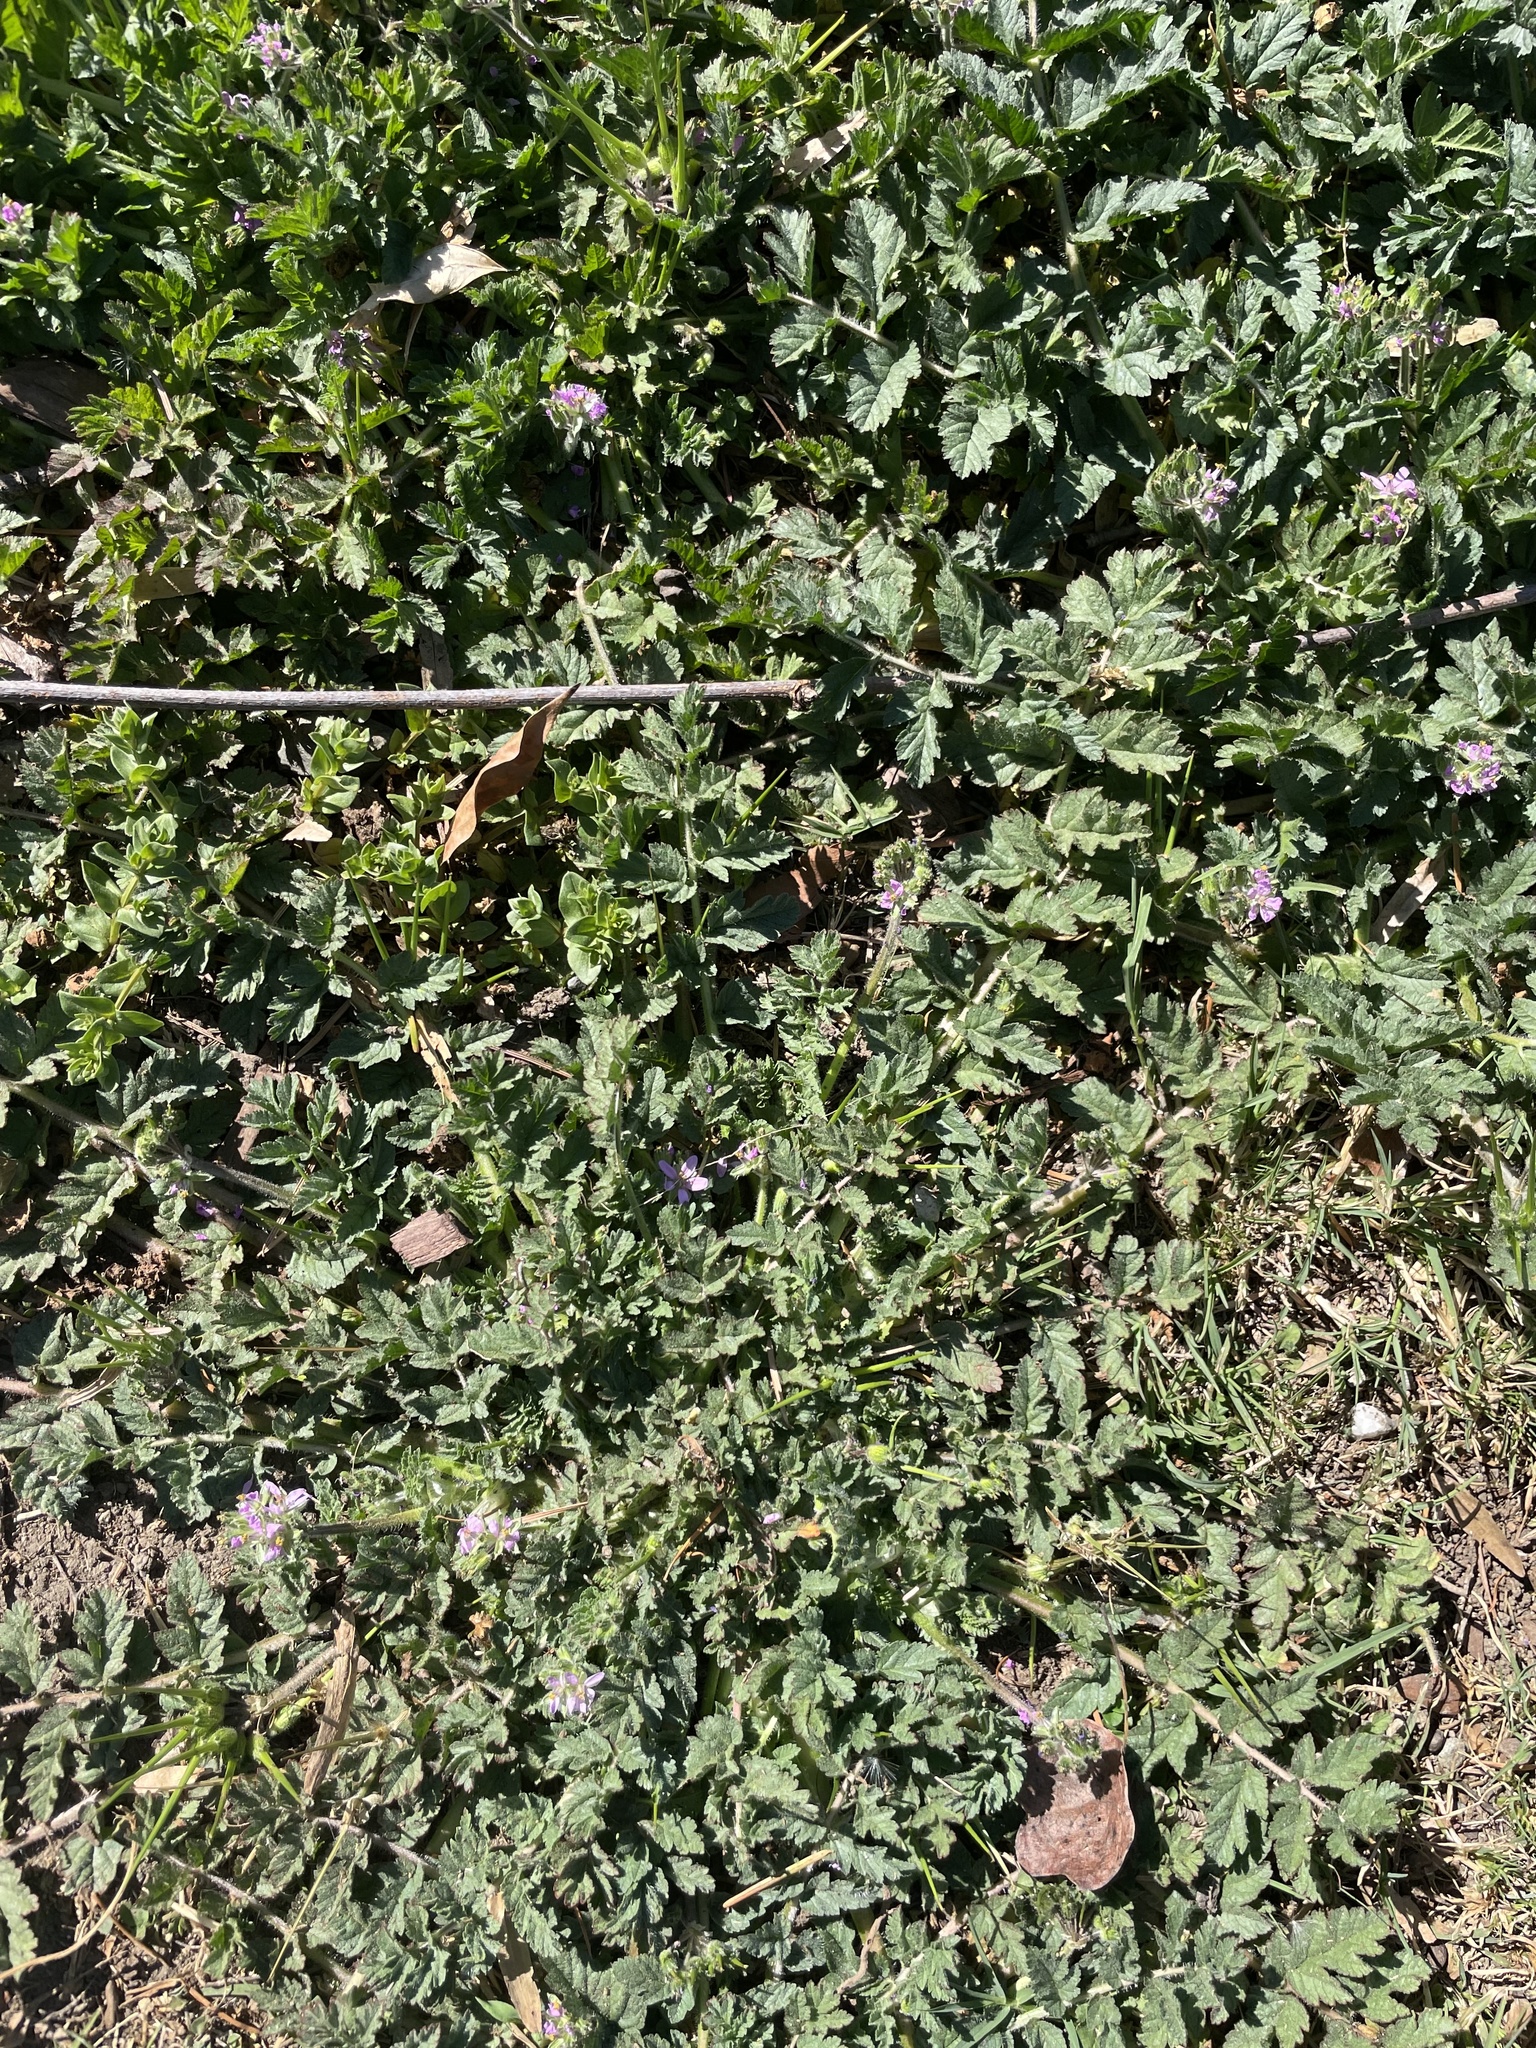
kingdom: Plantae
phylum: Tracheophyta
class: Magnoliopsida
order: Geraniales
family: Geraniaceae
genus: Erodium
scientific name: Erodium moschatum
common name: Musk stork's-bill
